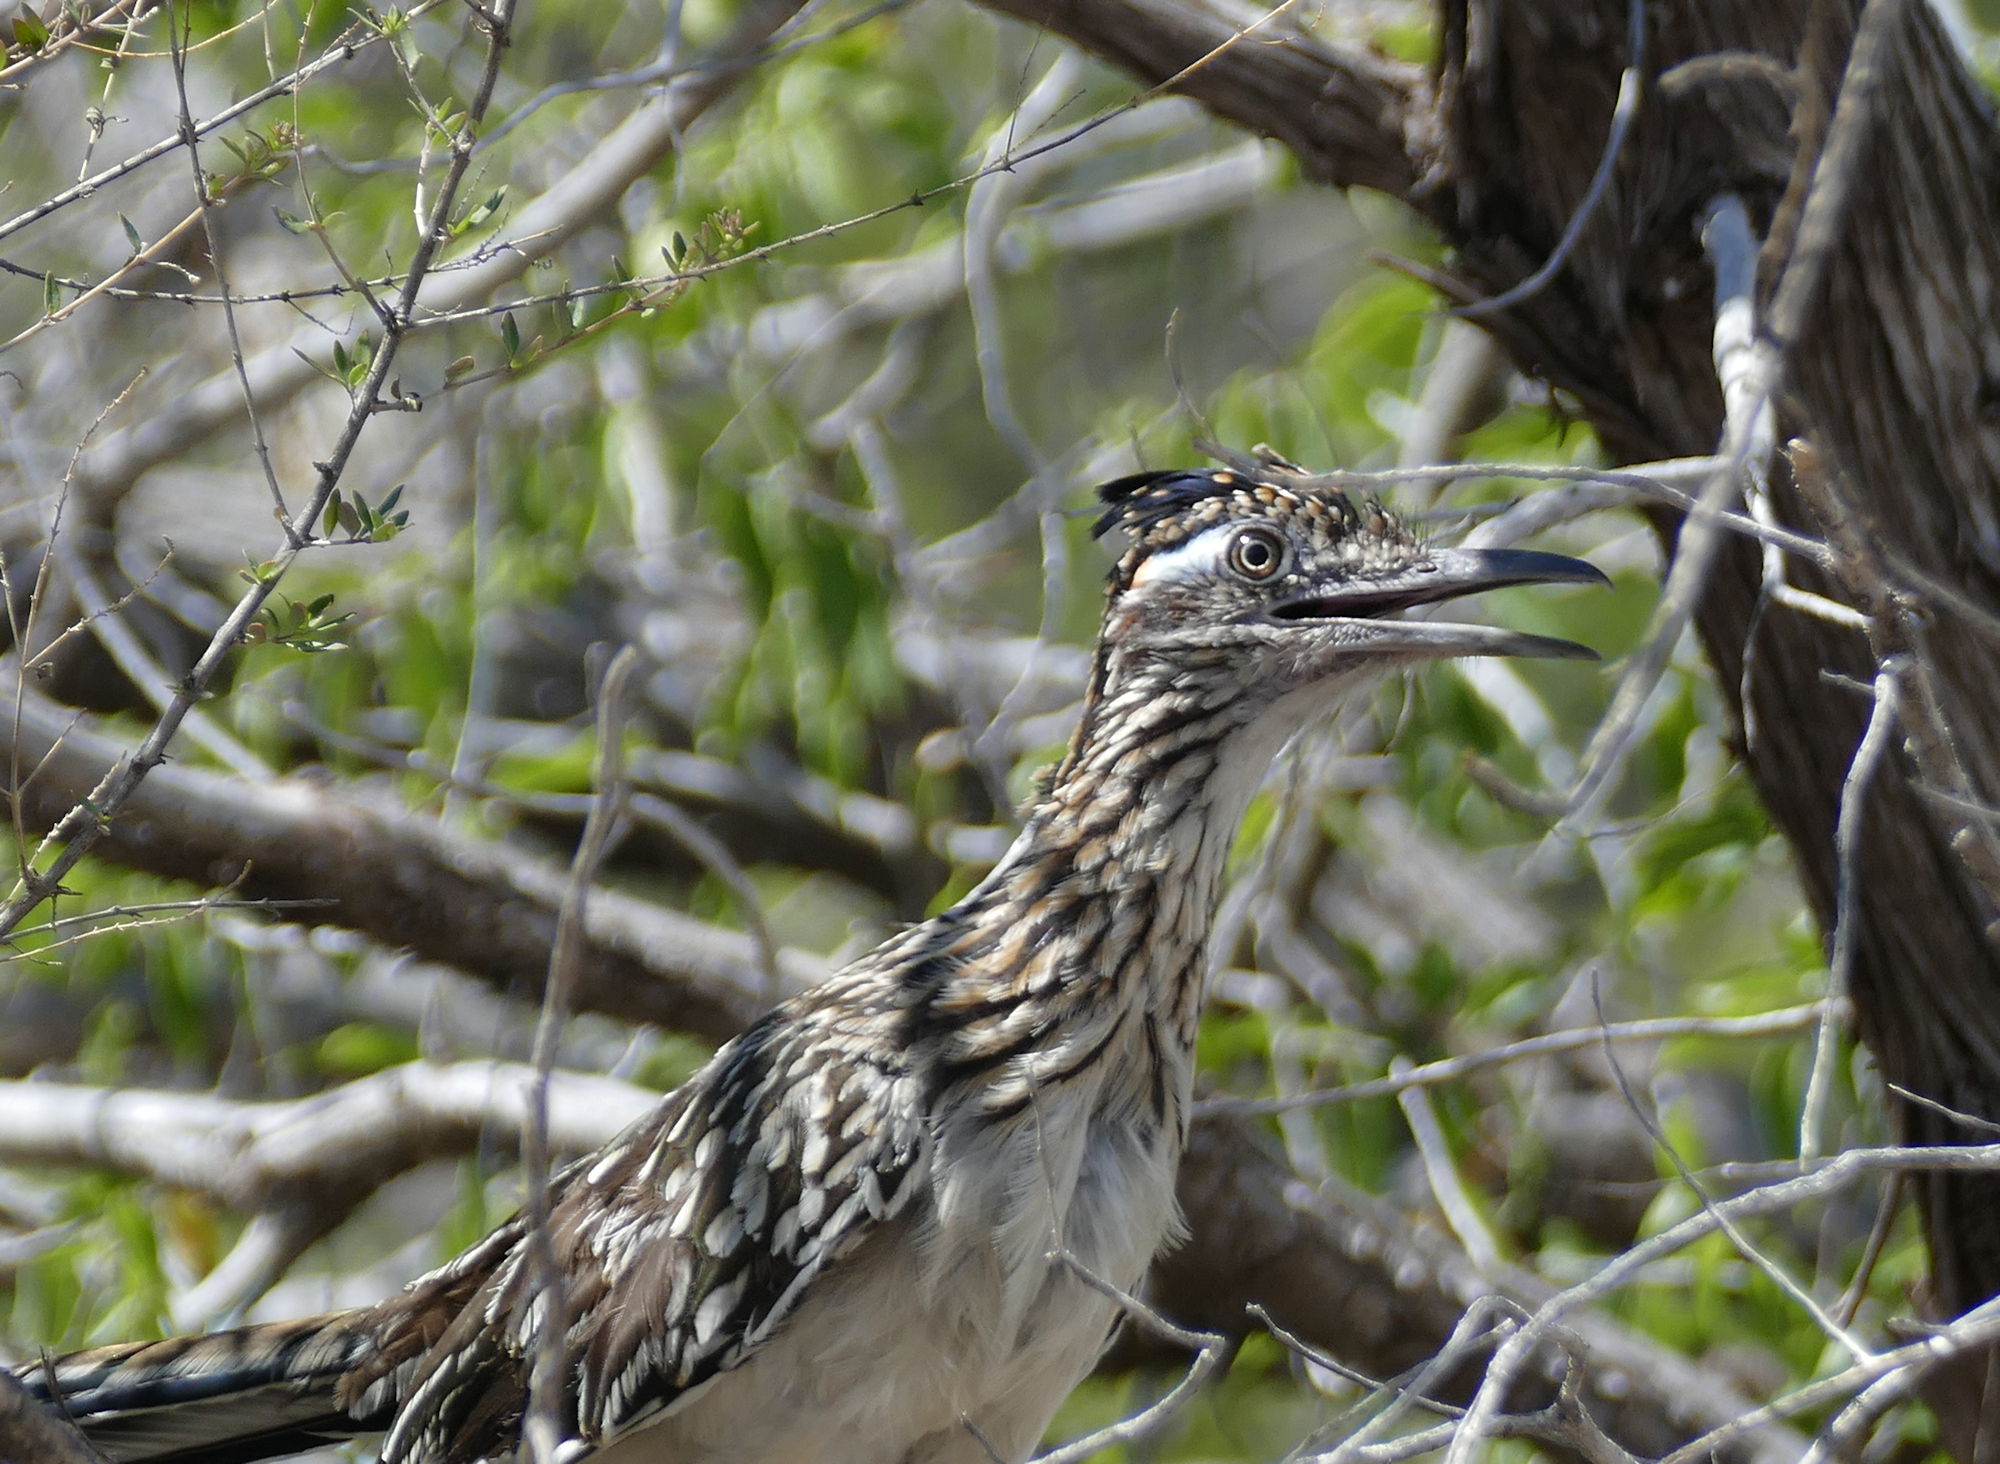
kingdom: Animalia
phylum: Chordata
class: Aves
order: Cuculiformes
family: Cuculidae
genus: Geococcyx
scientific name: Geococcyx californianus
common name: Greater roadrunner
